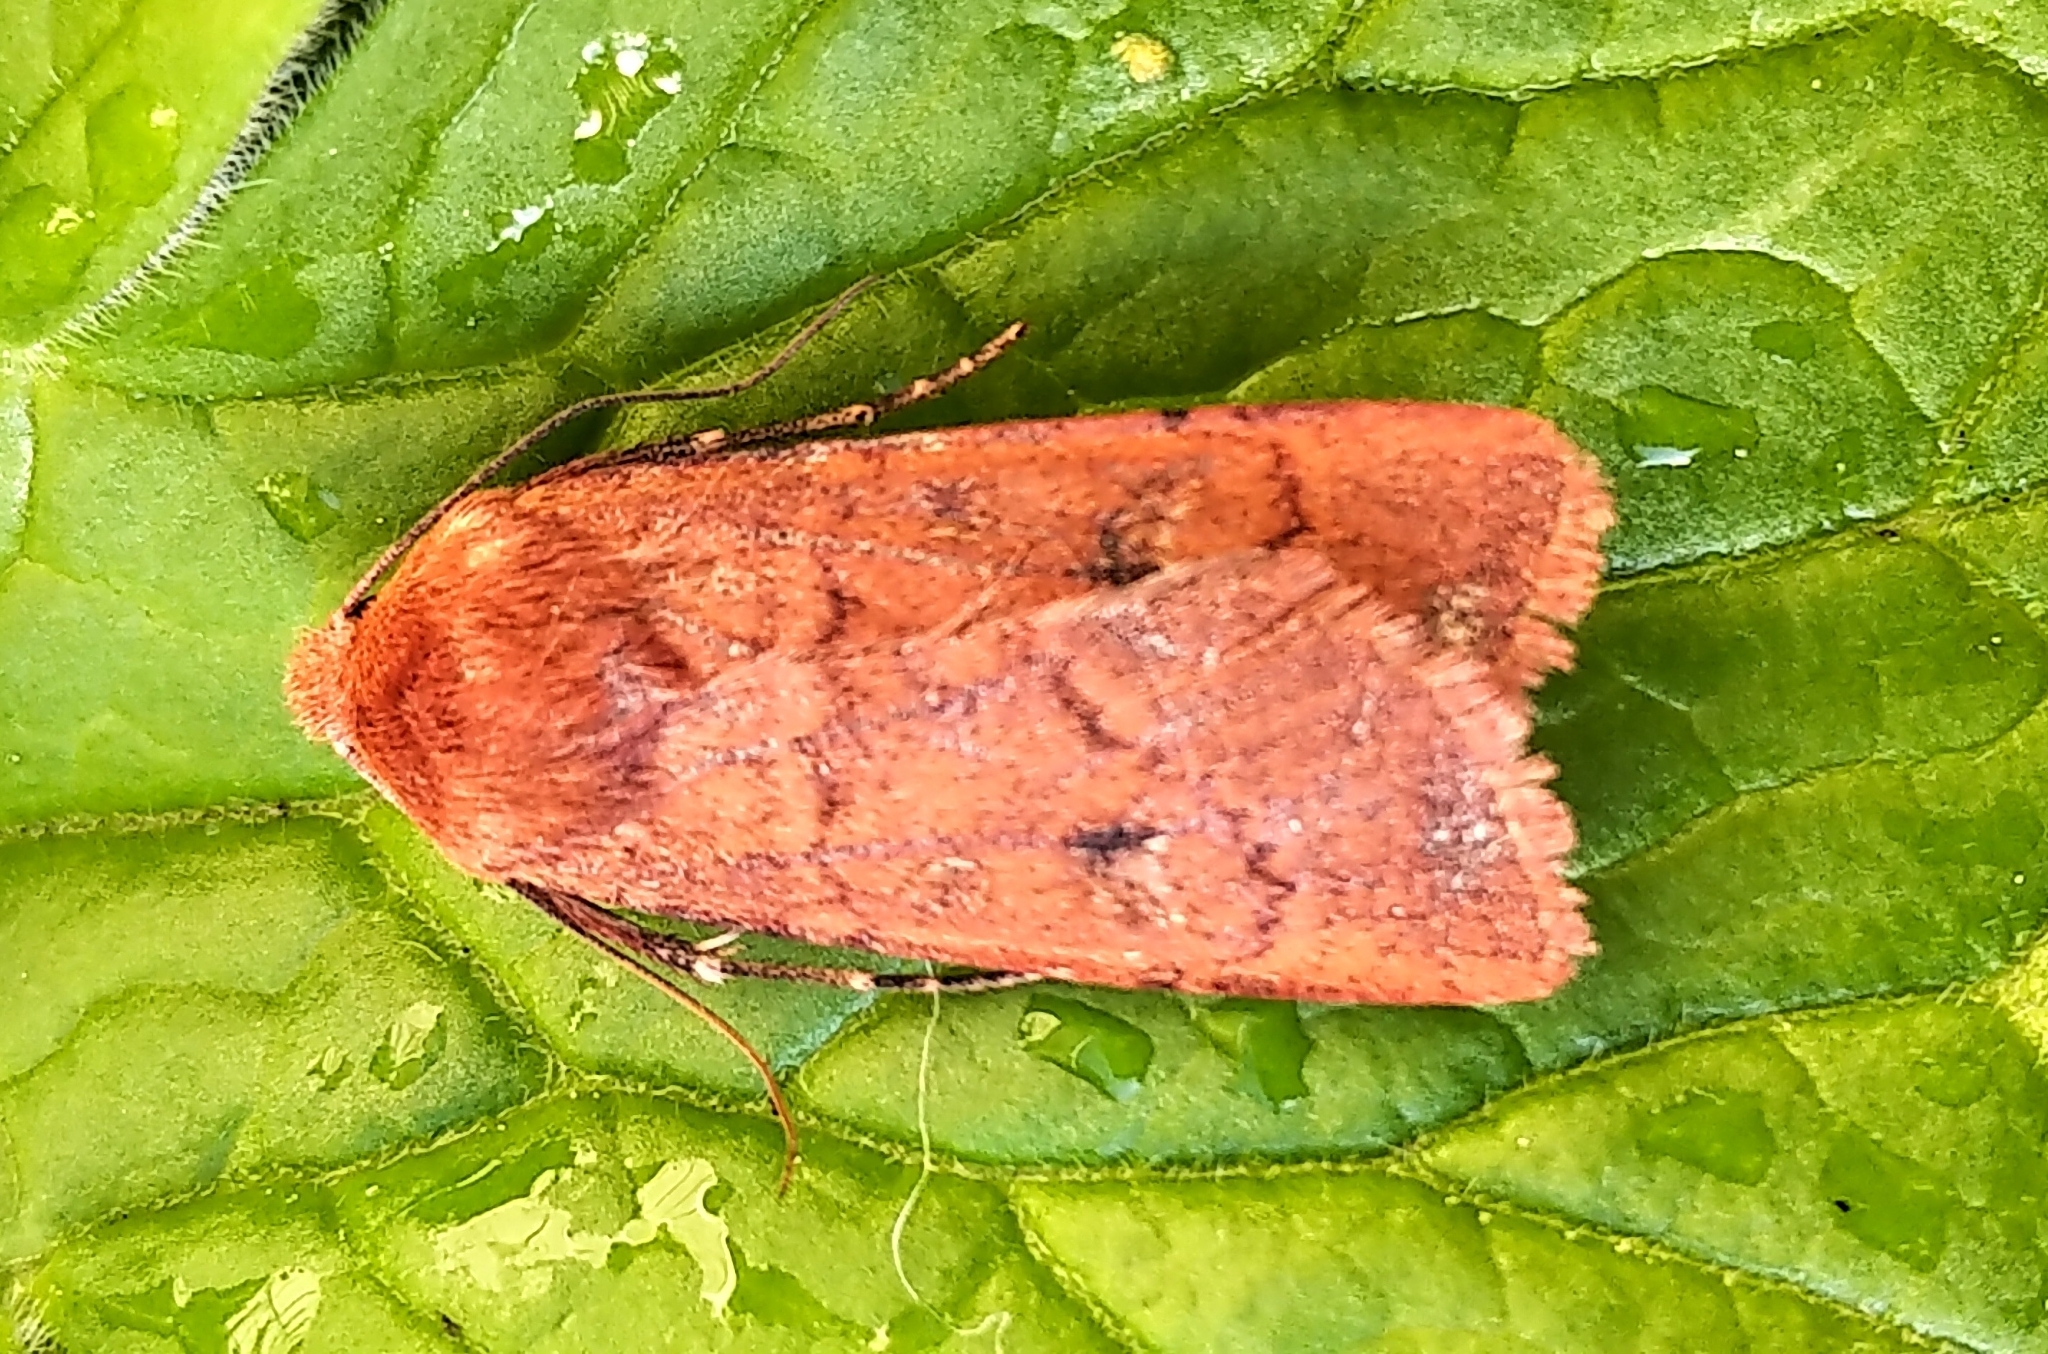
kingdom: Animalia
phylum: Arthropoda
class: Insecta
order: Lepidoptera
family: Noctuidae
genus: Euxoa
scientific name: Euxoa mimallonis
